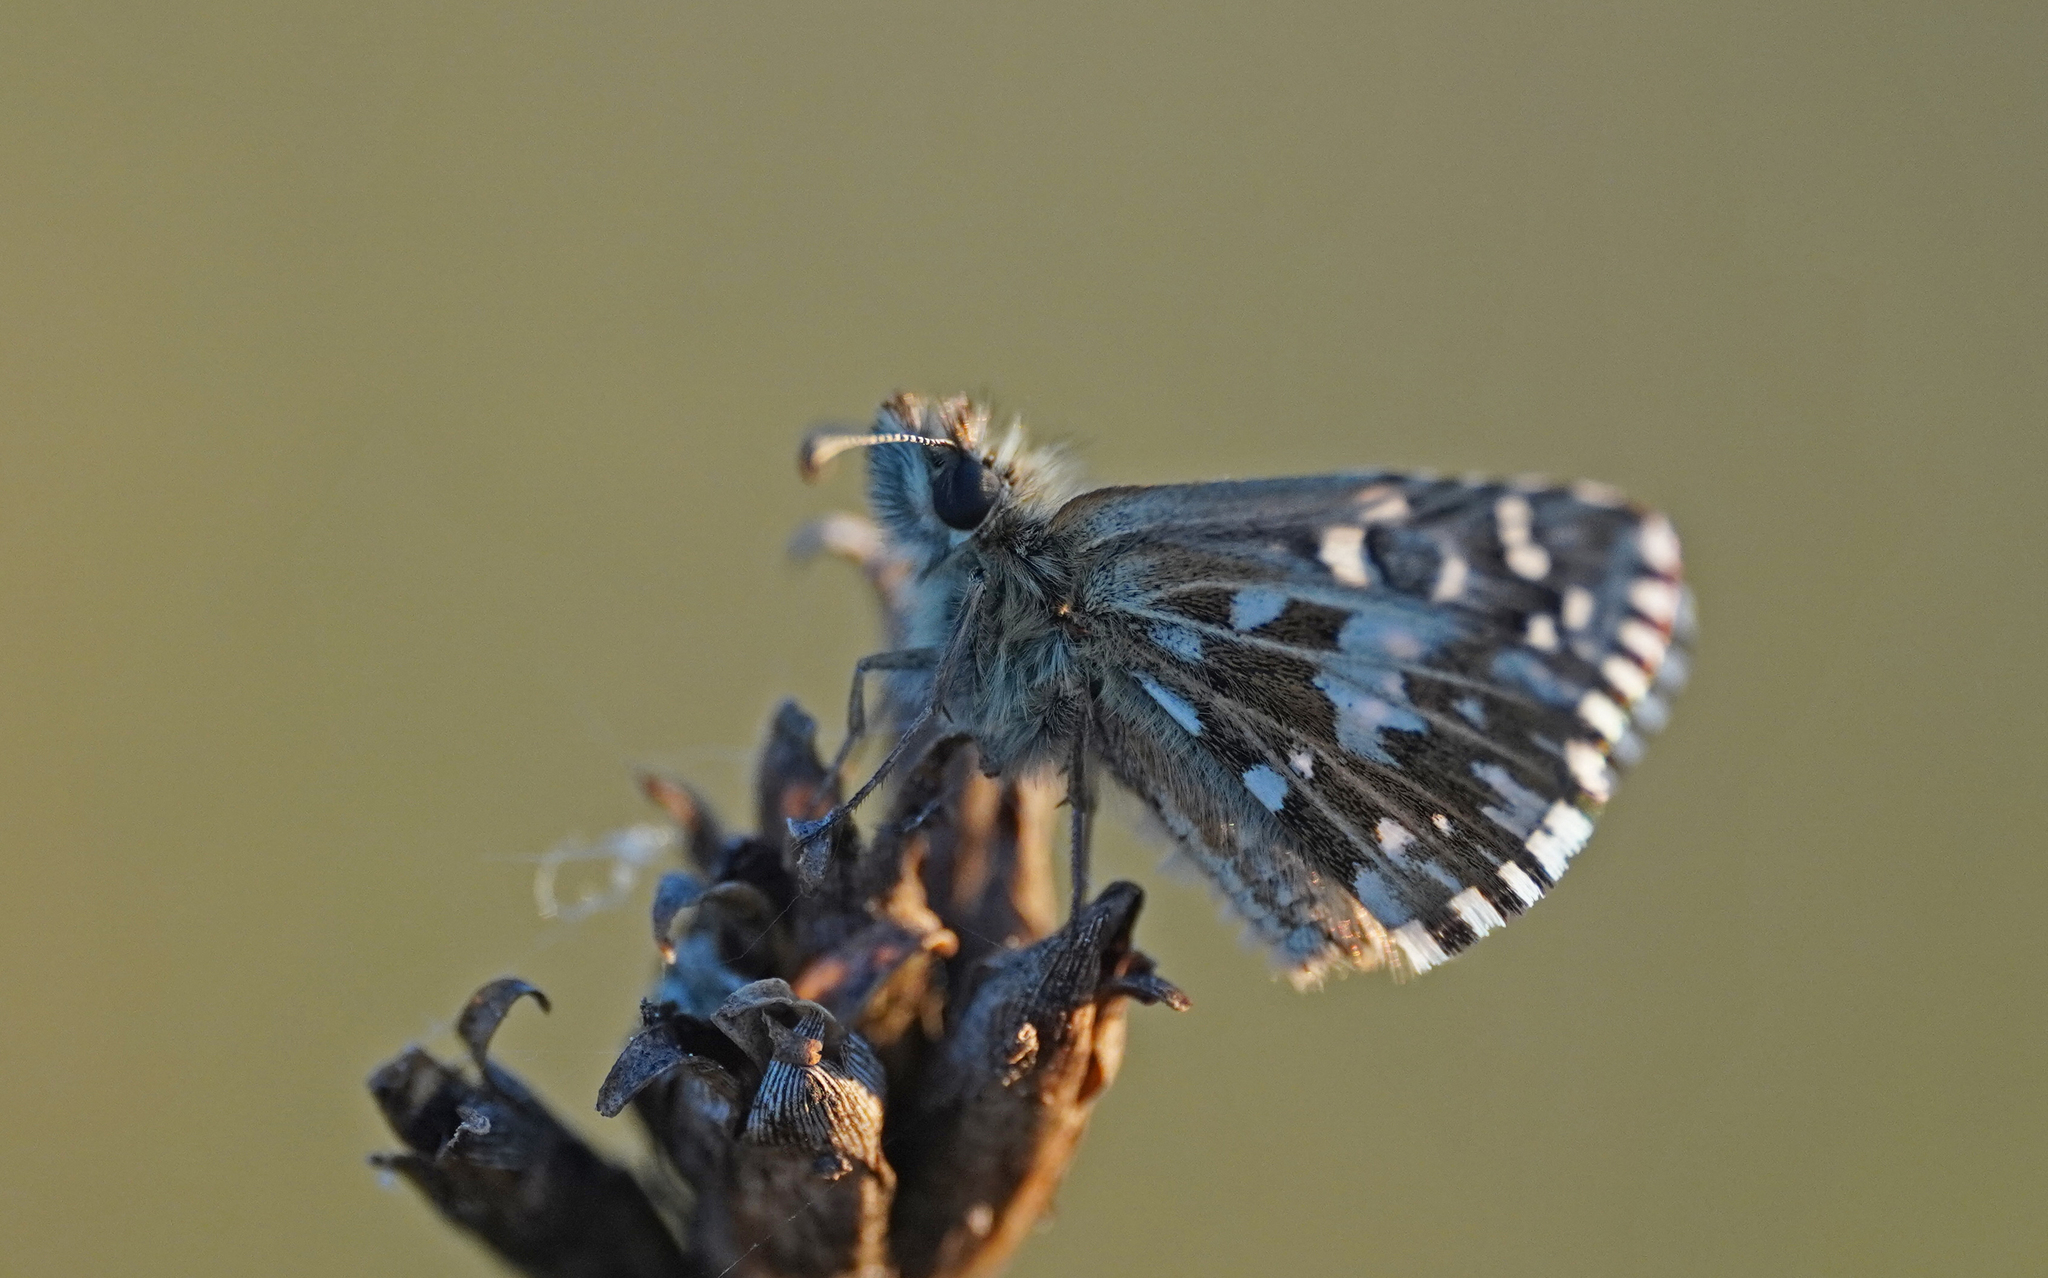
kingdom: Animalia
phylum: Arthropoda
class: Insecta
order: Lepidoptera
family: Hesperiidae
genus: Pyrgus
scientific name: Pyrgus malvae
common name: Grizzled skipper
